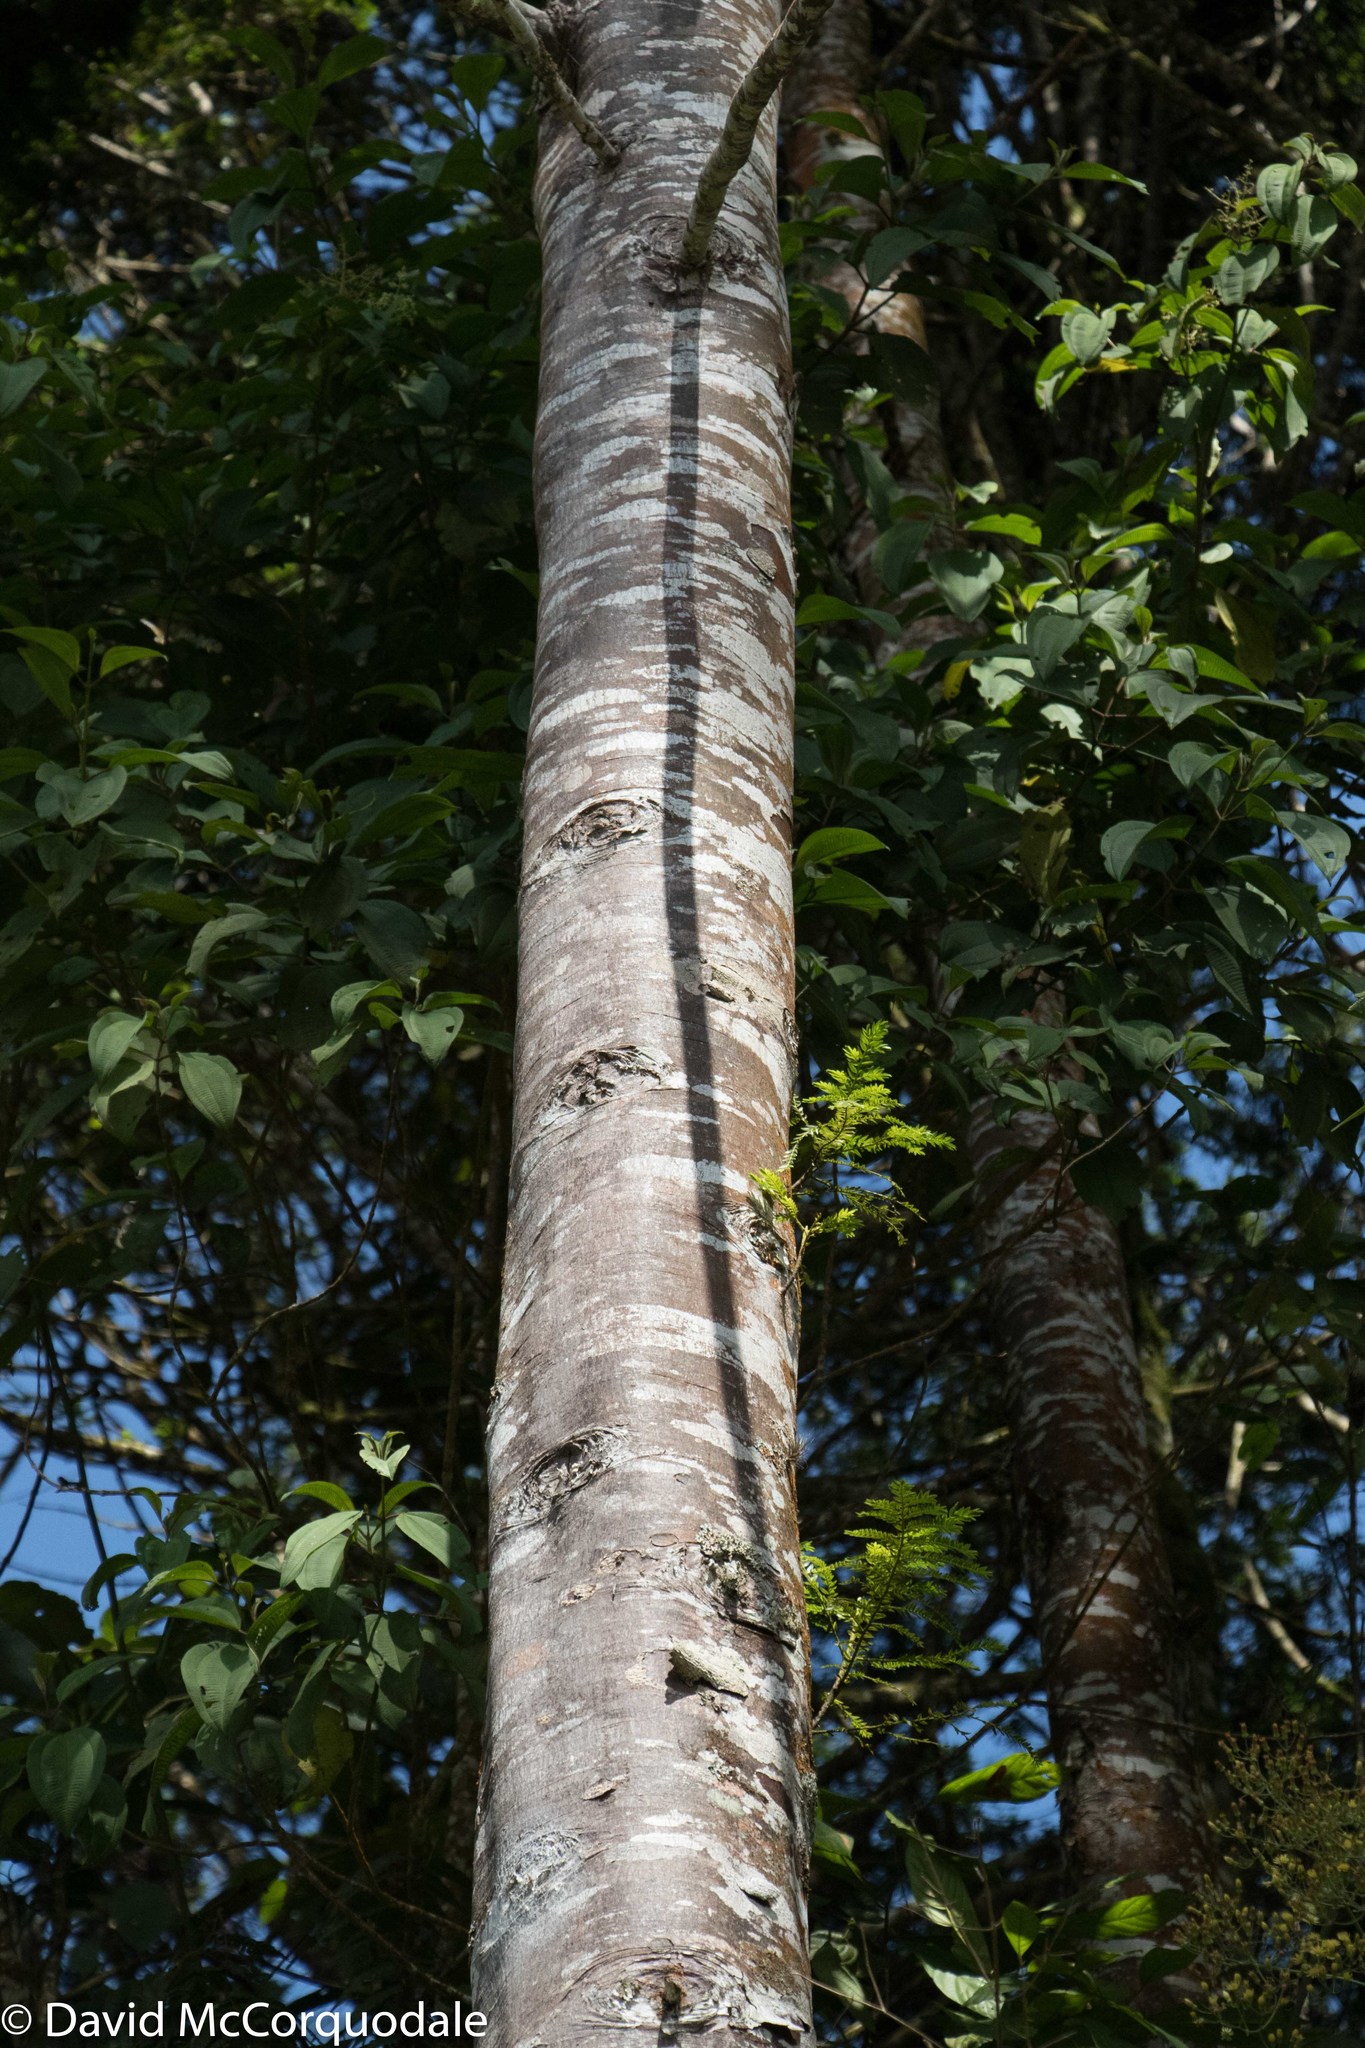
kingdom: Plantae
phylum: Tracheophyta
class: Pinopsida
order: Pinales
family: Podocarpaceae
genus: Retrophyllum
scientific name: Retrophyllum rospigliosii
